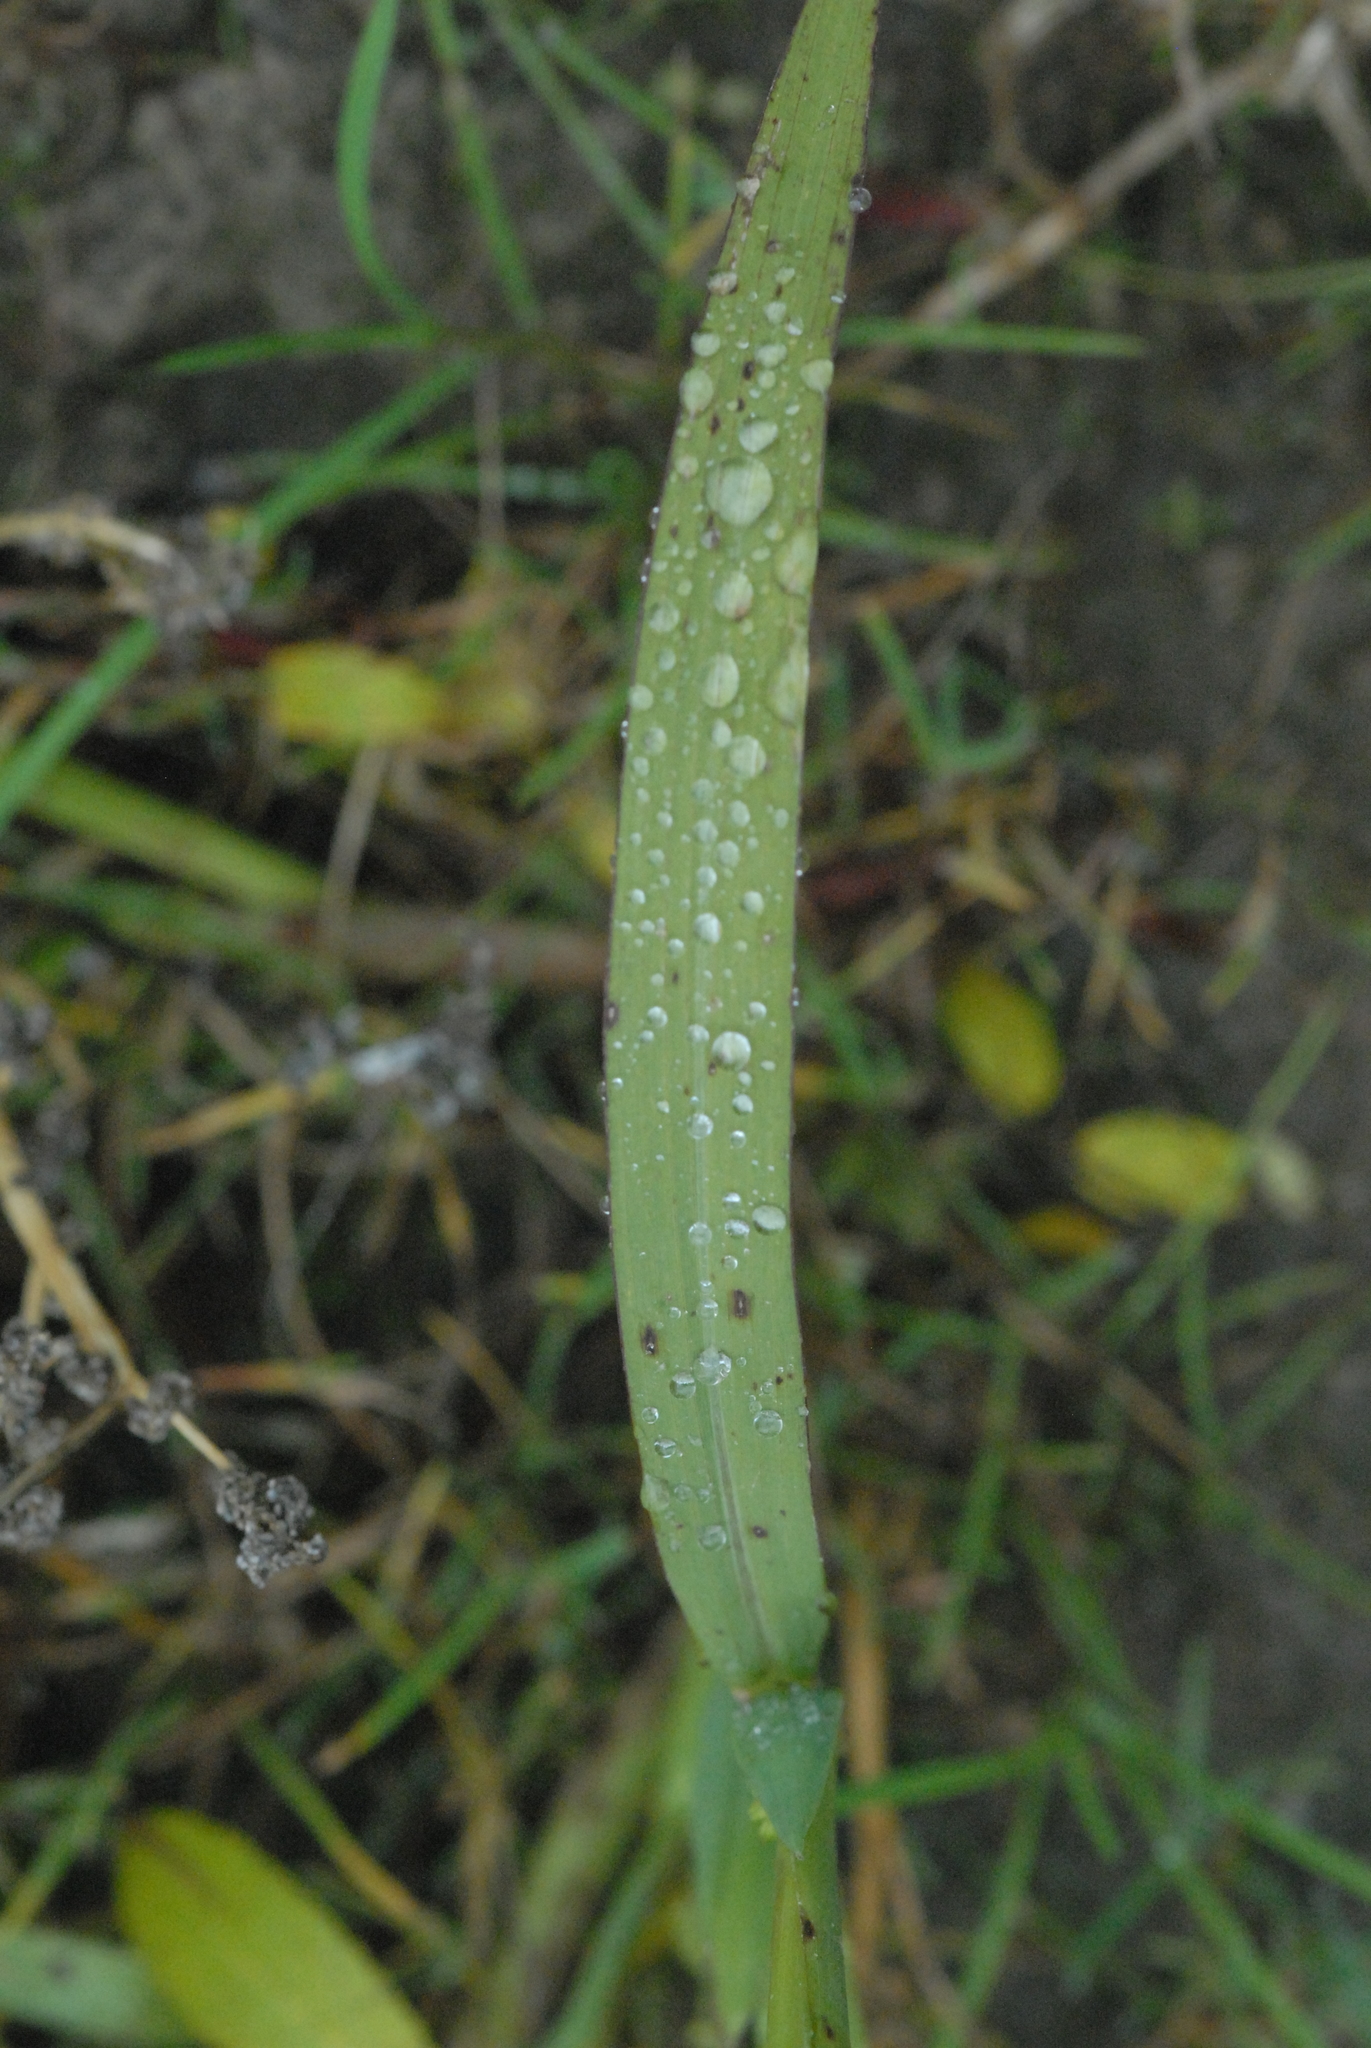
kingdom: Plantae
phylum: Tracheophyta
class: Liliopsida
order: Poales
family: Poaceae
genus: Echinochloa
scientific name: Echinochloa crus-galli
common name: Cockspur
